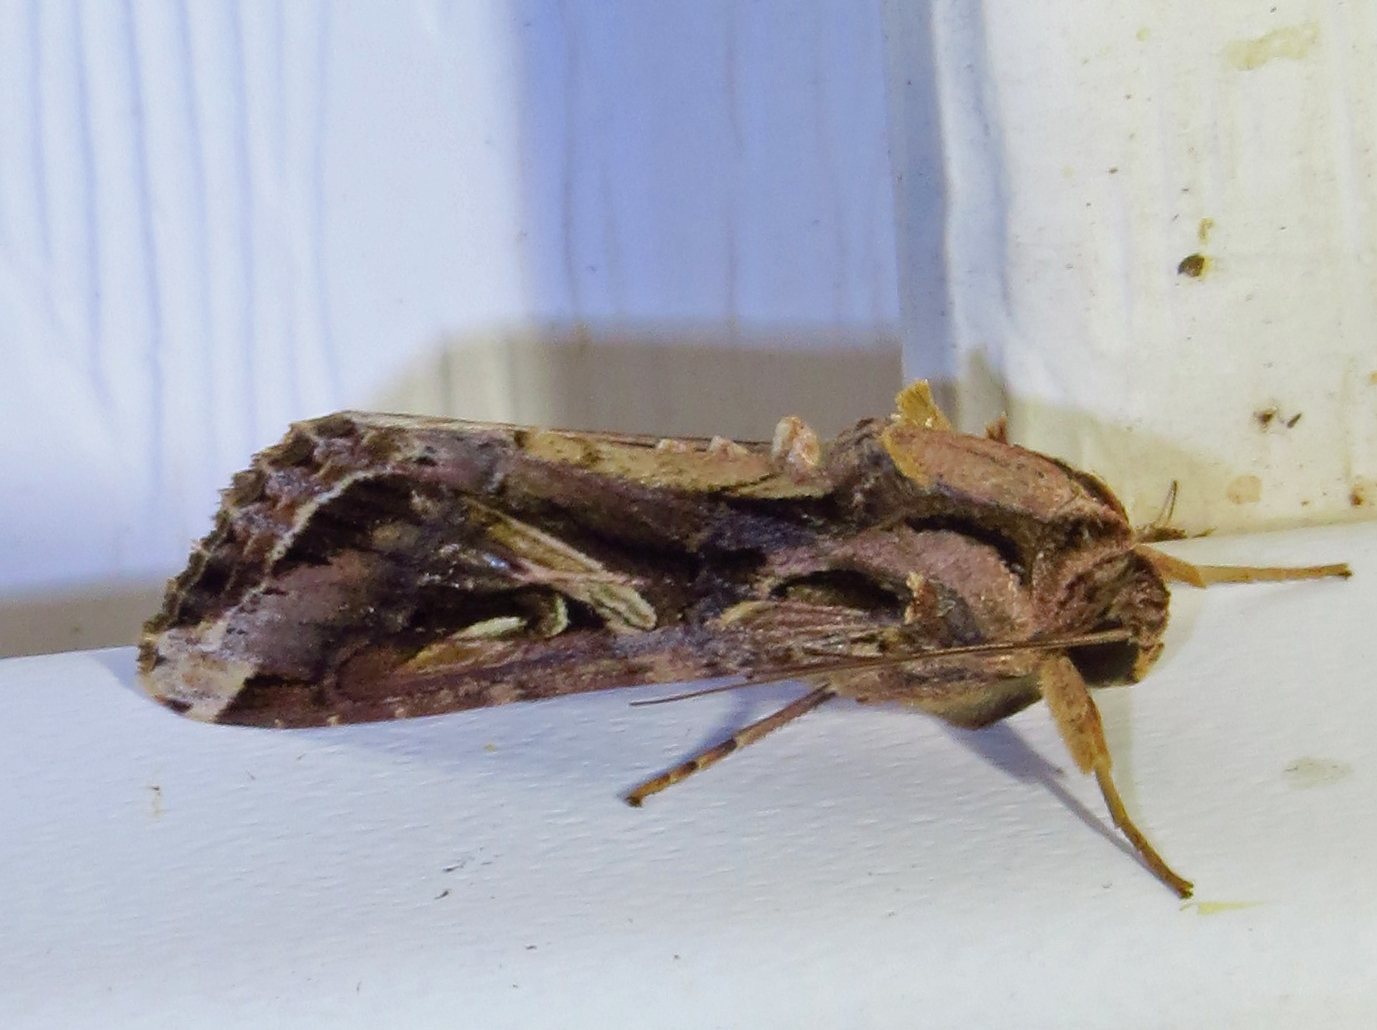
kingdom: Animalia
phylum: Arthropoda
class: Insecta
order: Lepidoptera
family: Noctuidae
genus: Spodoptera
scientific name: Spodoptera dolichos
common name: Sweetpotato armyworm
